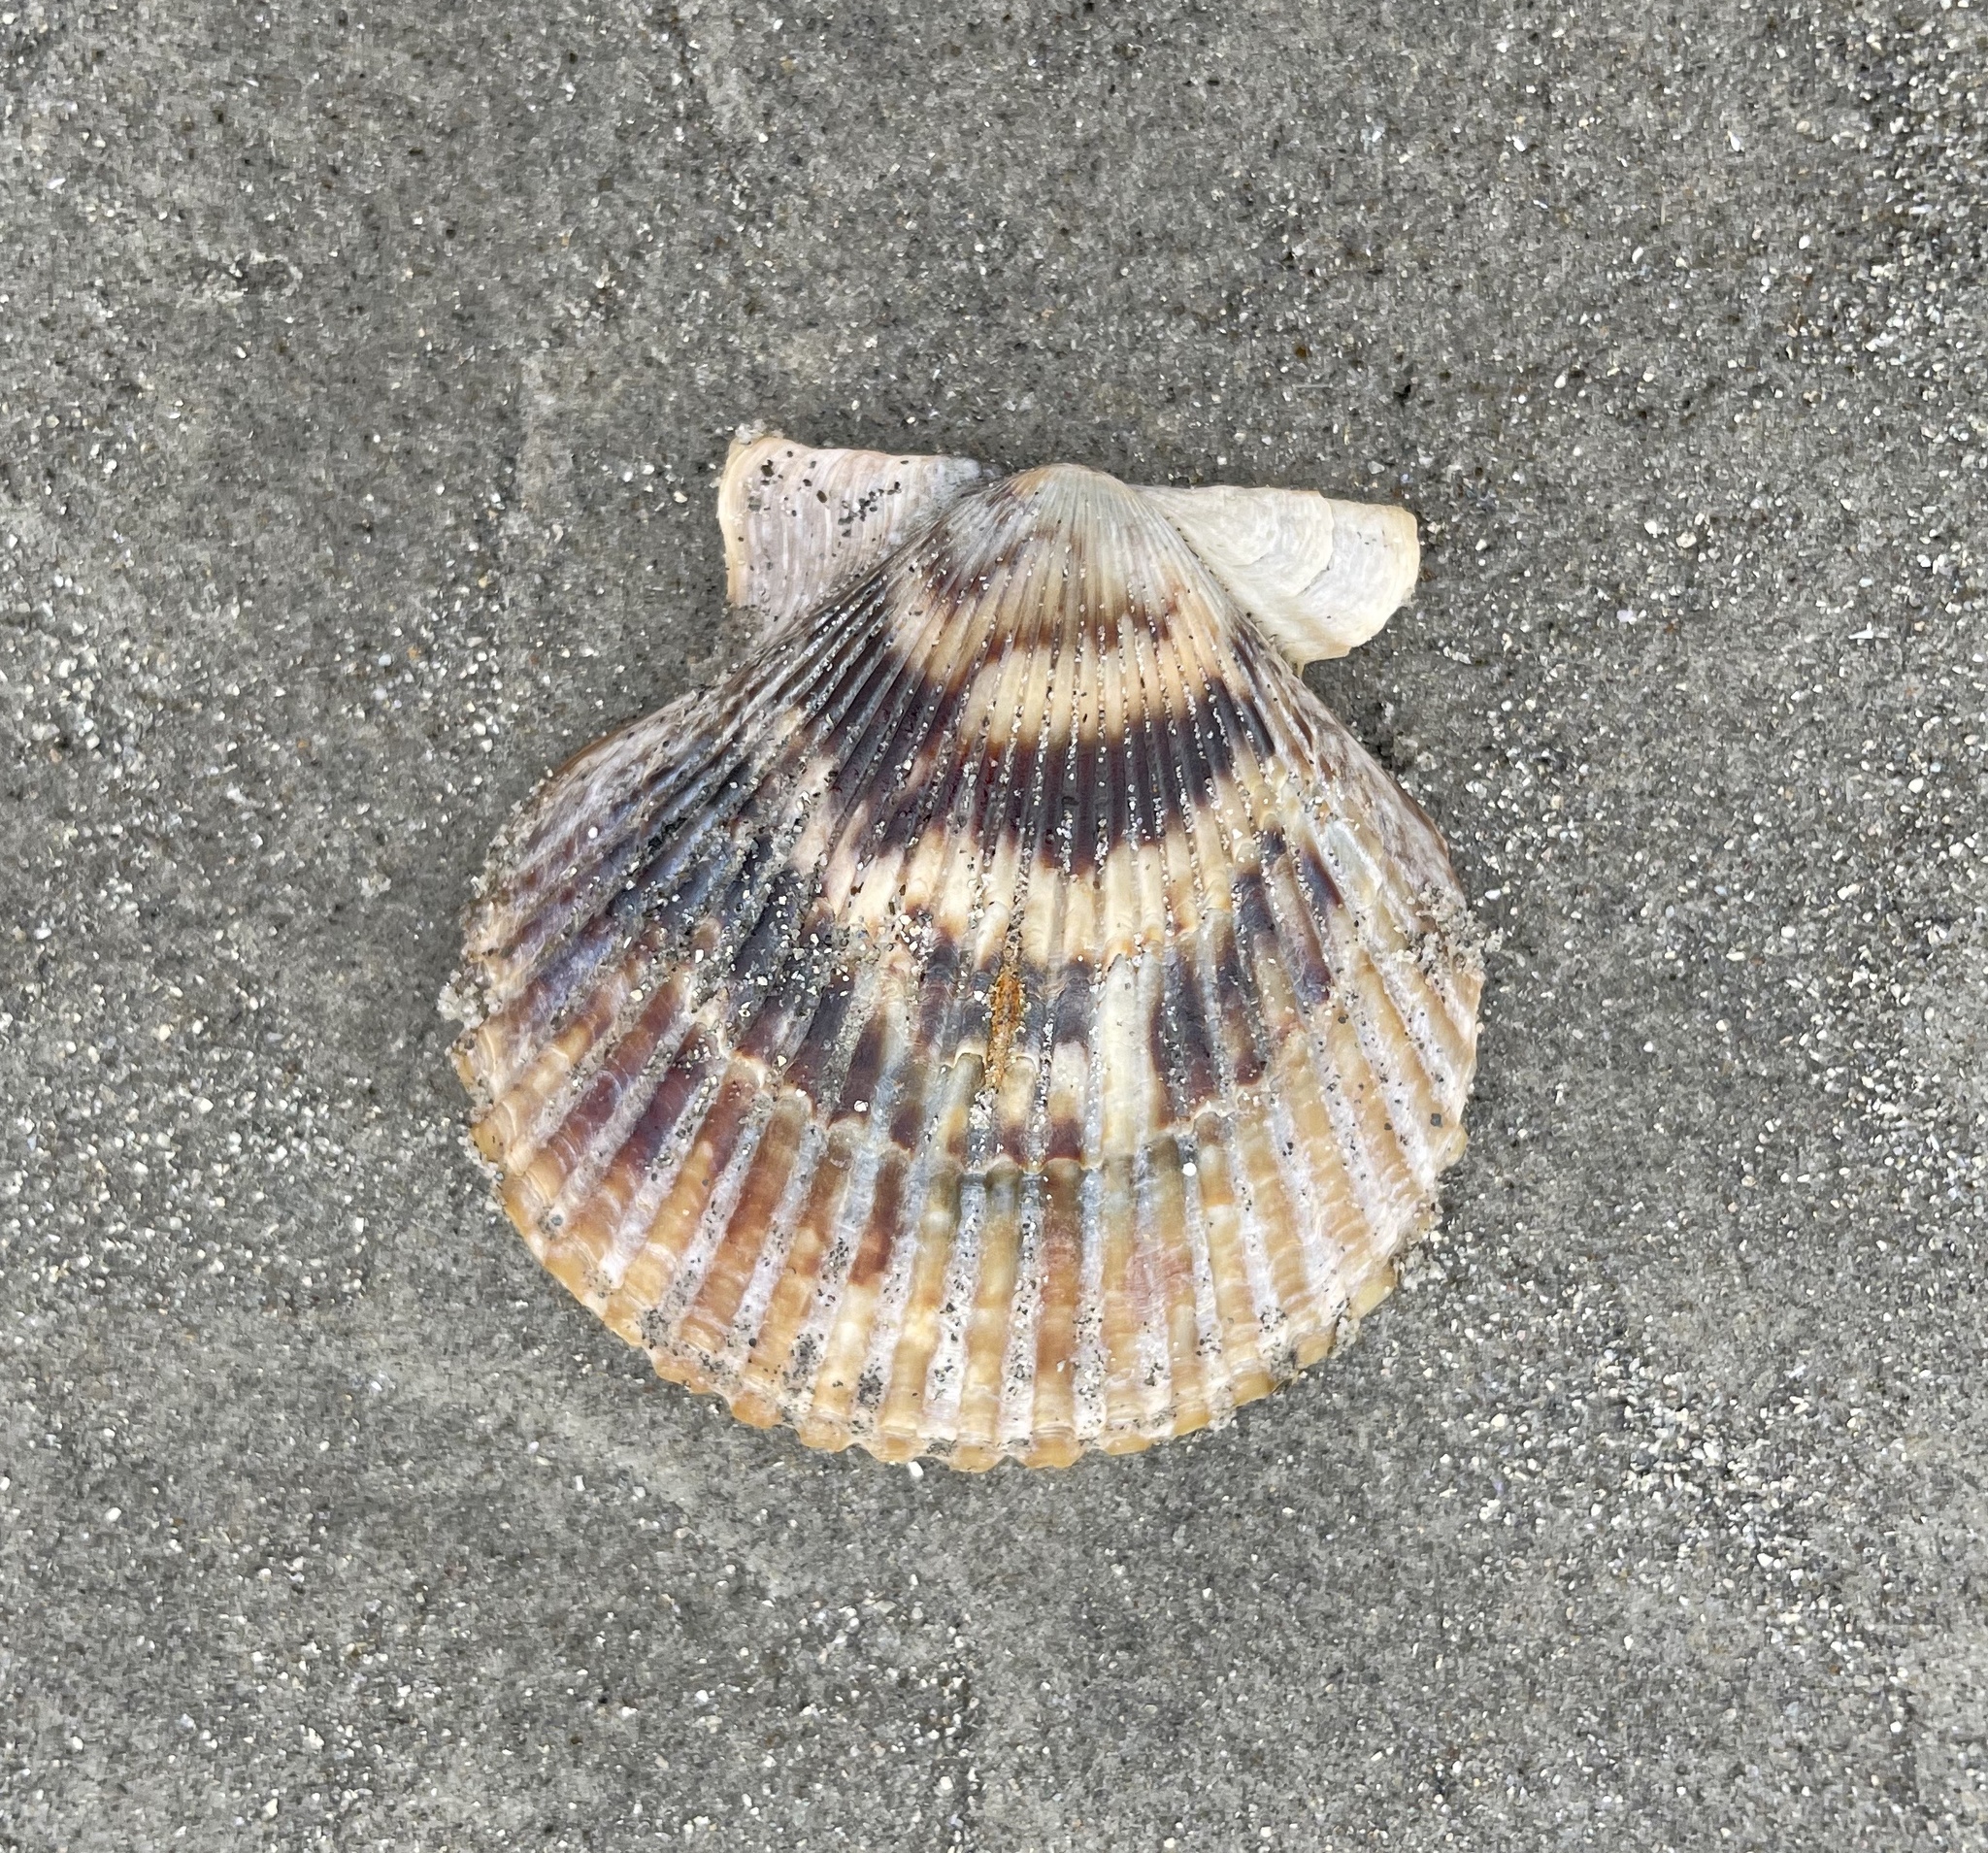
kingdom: Animalia
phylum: Mollusca
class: Bivalvia
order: Pectinida
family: Pectinidae
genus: Argopecten
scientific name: Argopecten ventricosus
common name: Catarina scallop
